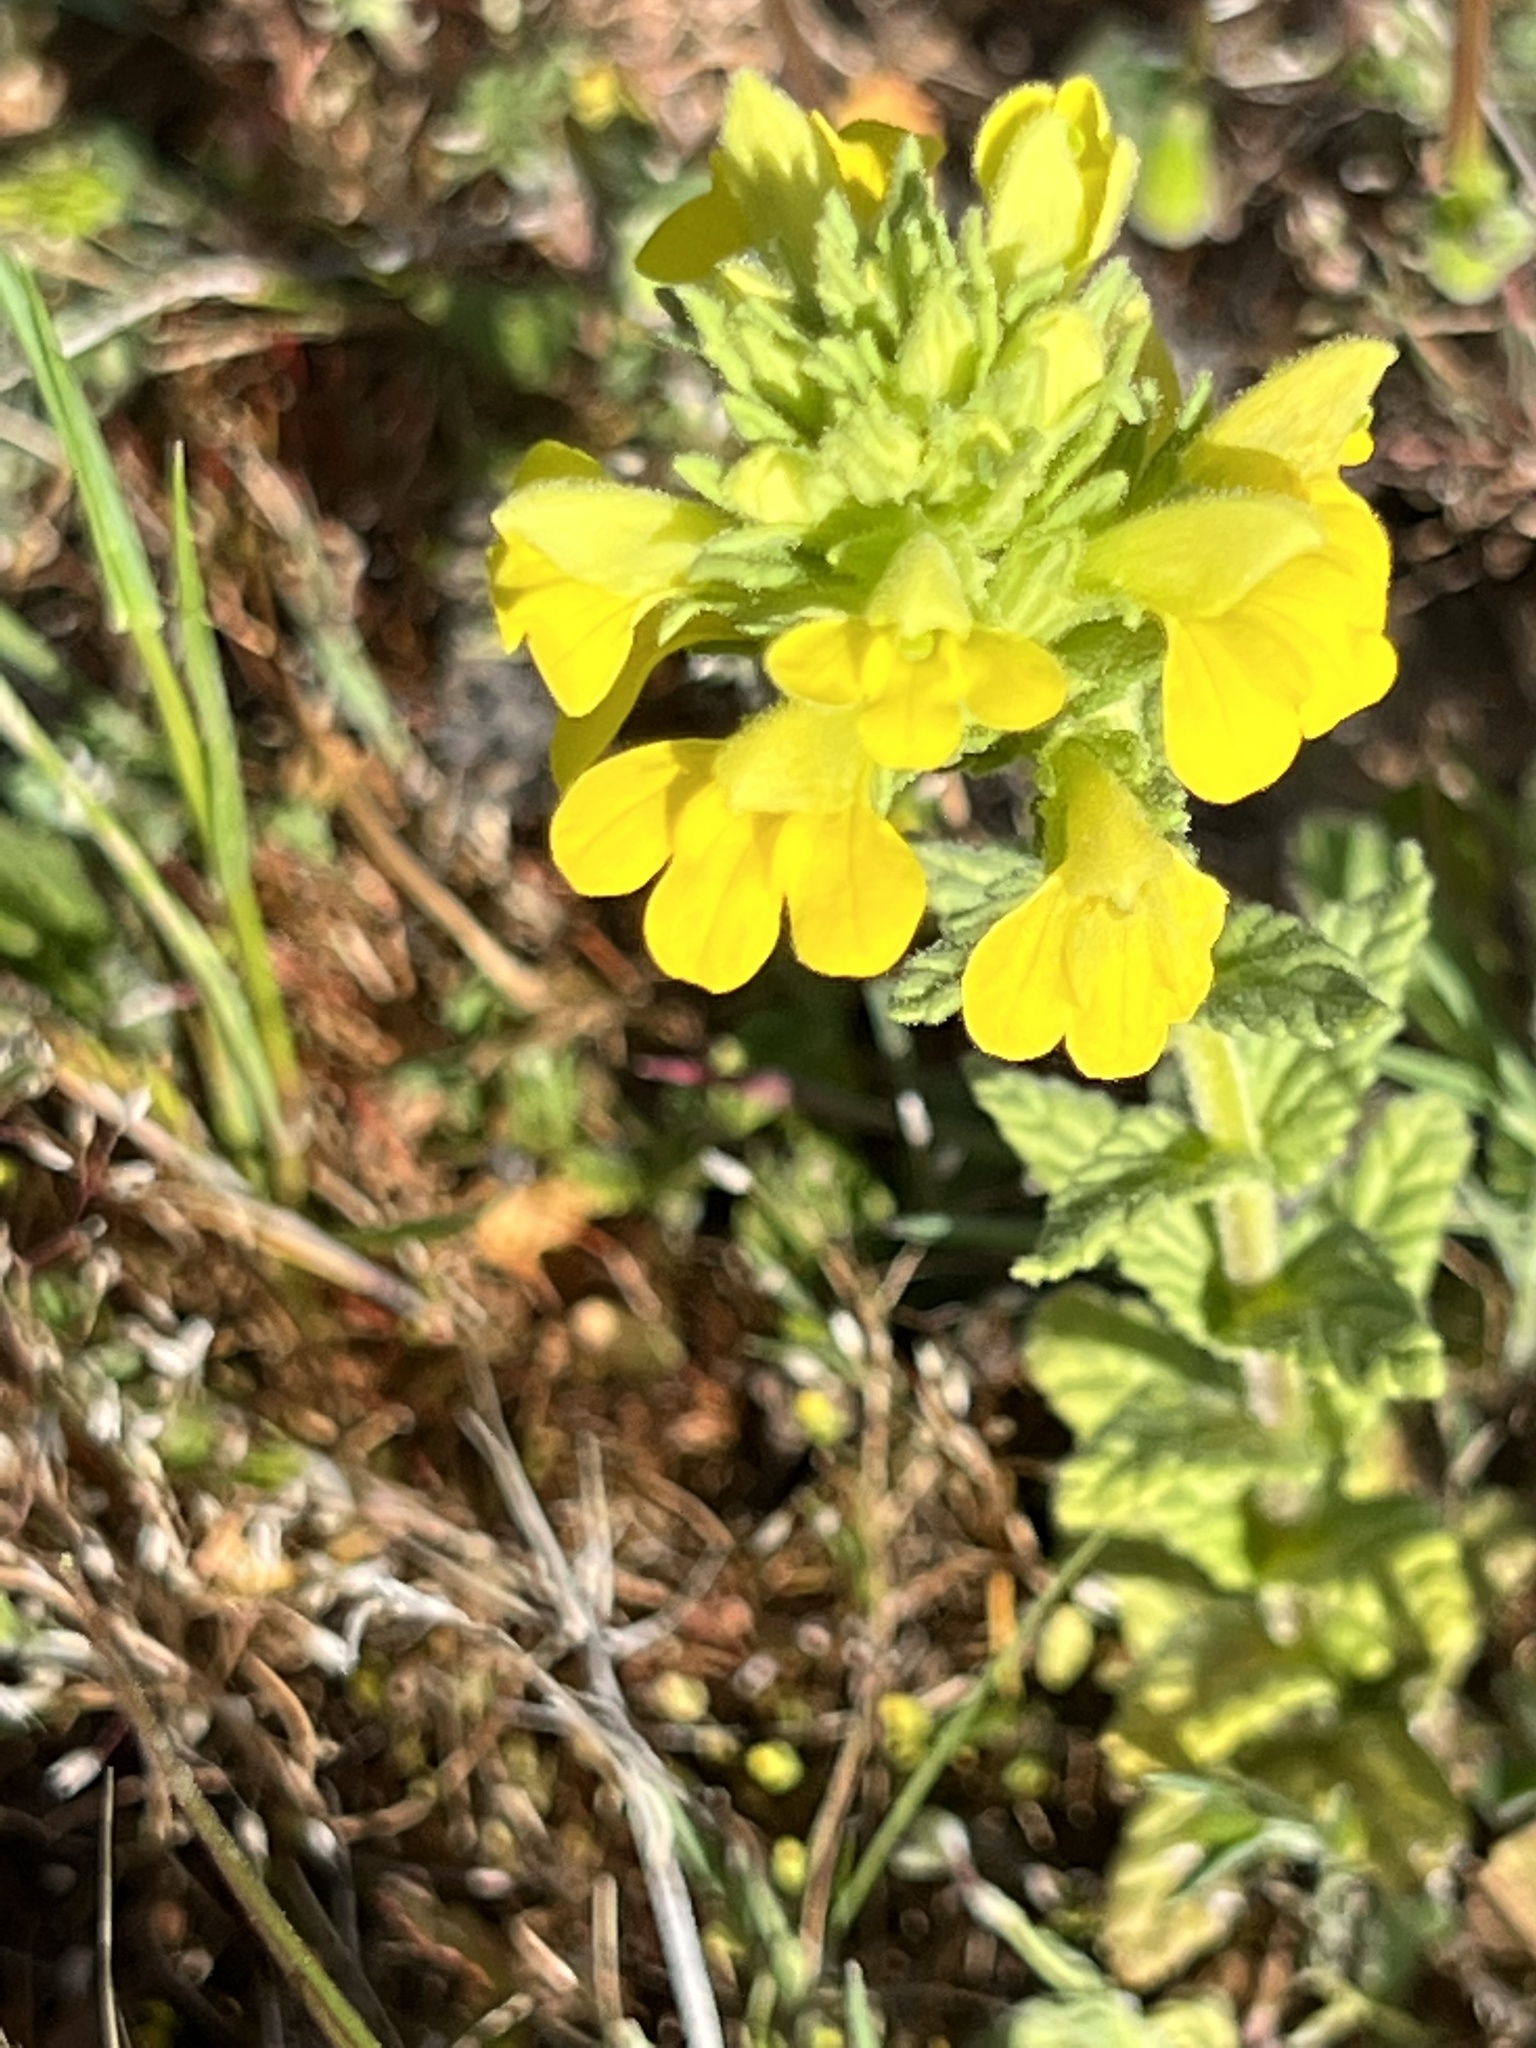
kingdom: Plantae
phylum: Tracheophyta
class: Magnoliopsida
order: Lamiales
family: Orobanchaceae
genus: Bellardia
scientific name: Bellardia viscosa
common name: Sticky parentucellia
